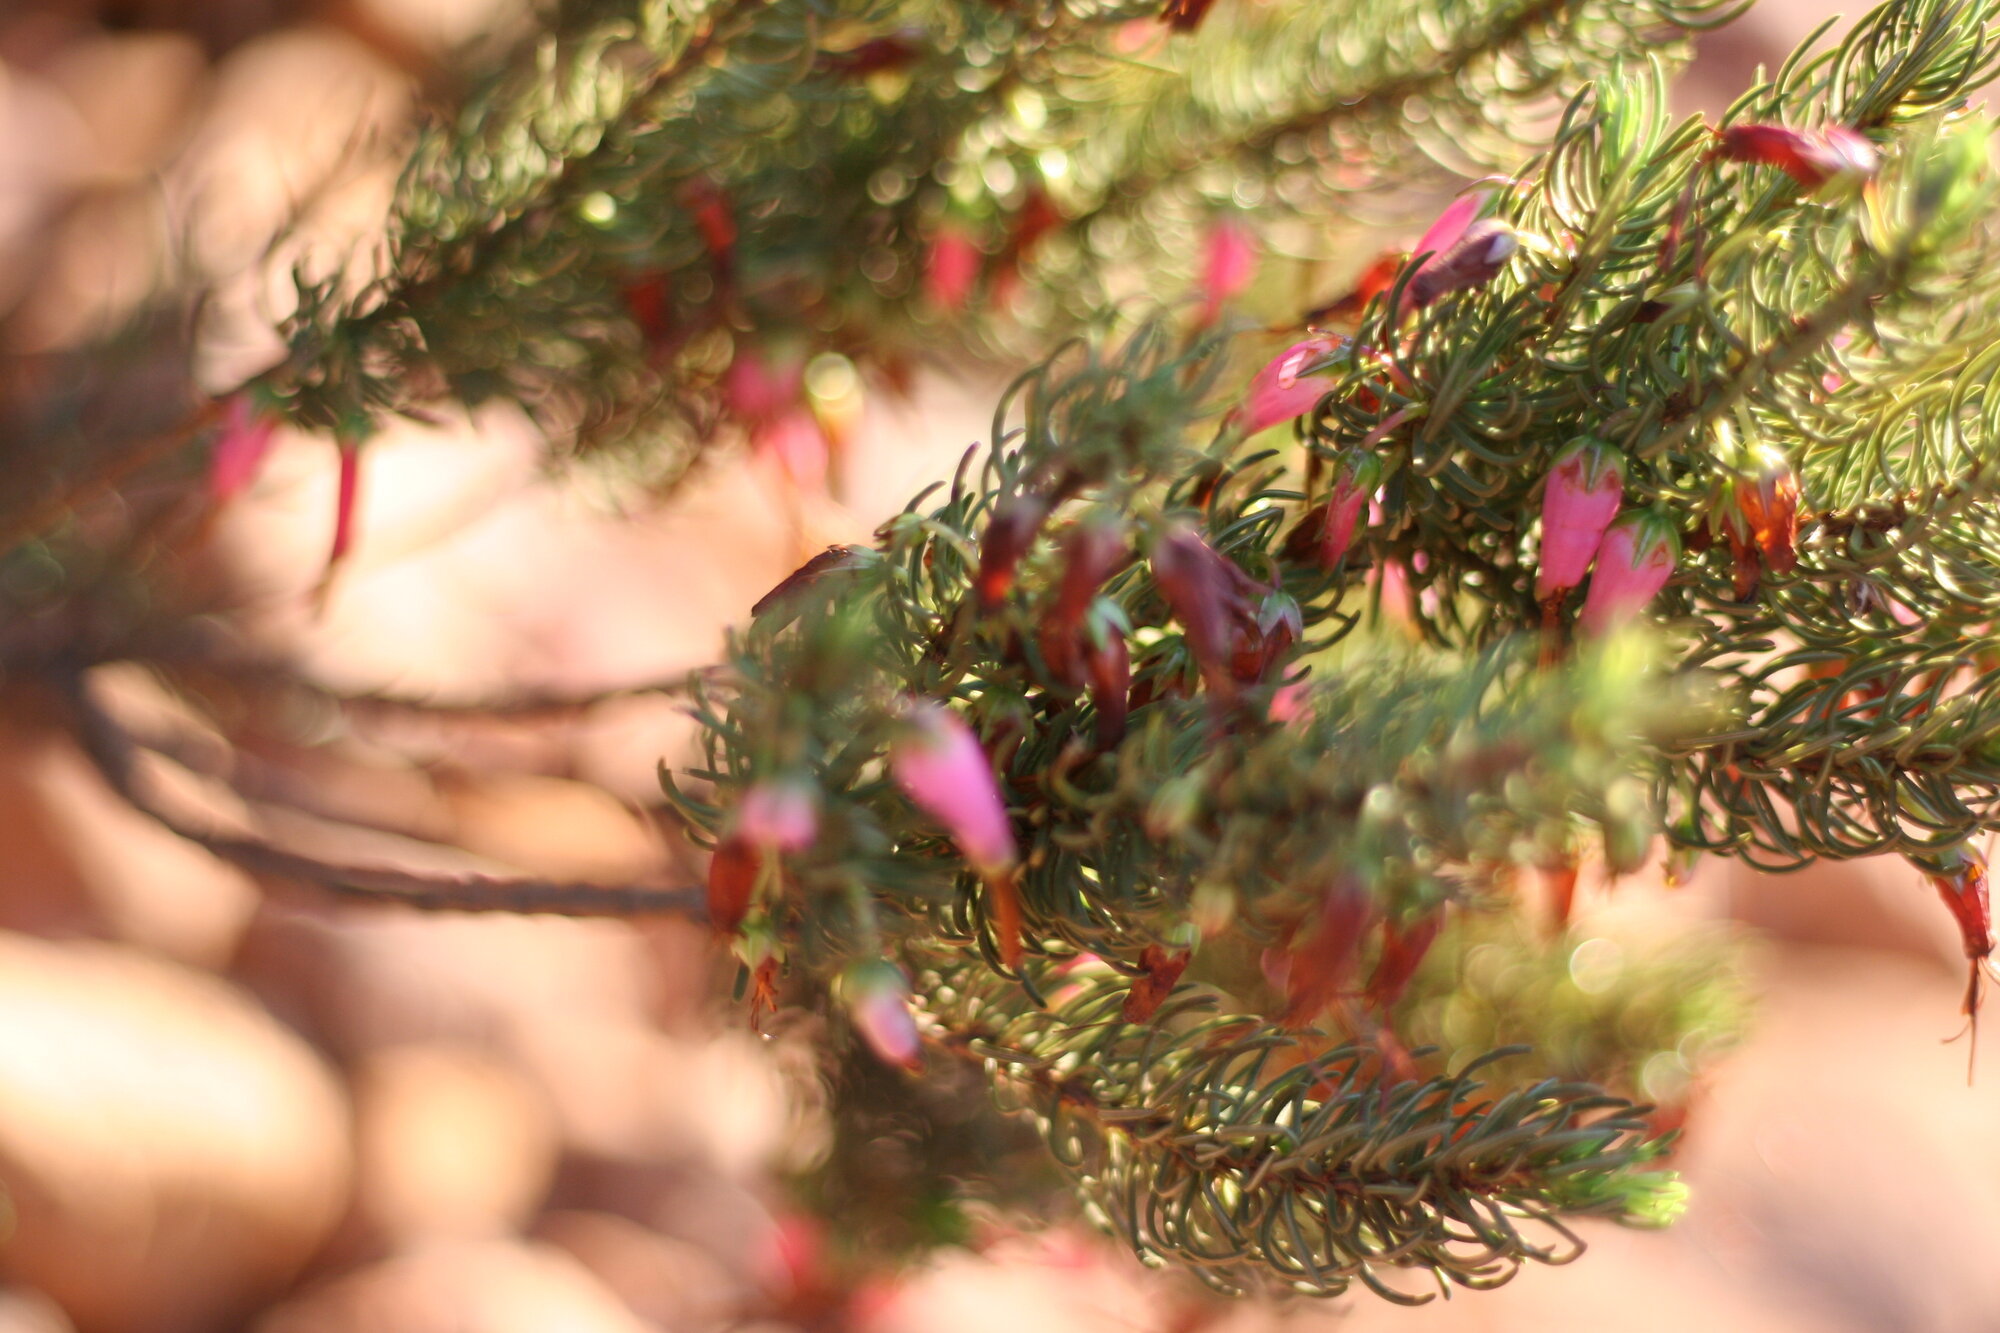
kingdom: Plantae
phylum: Tracheophyta
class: Magnoliopsida
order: Ericales
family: Ericaceae
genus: Erica
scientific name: Erica plukenetii
